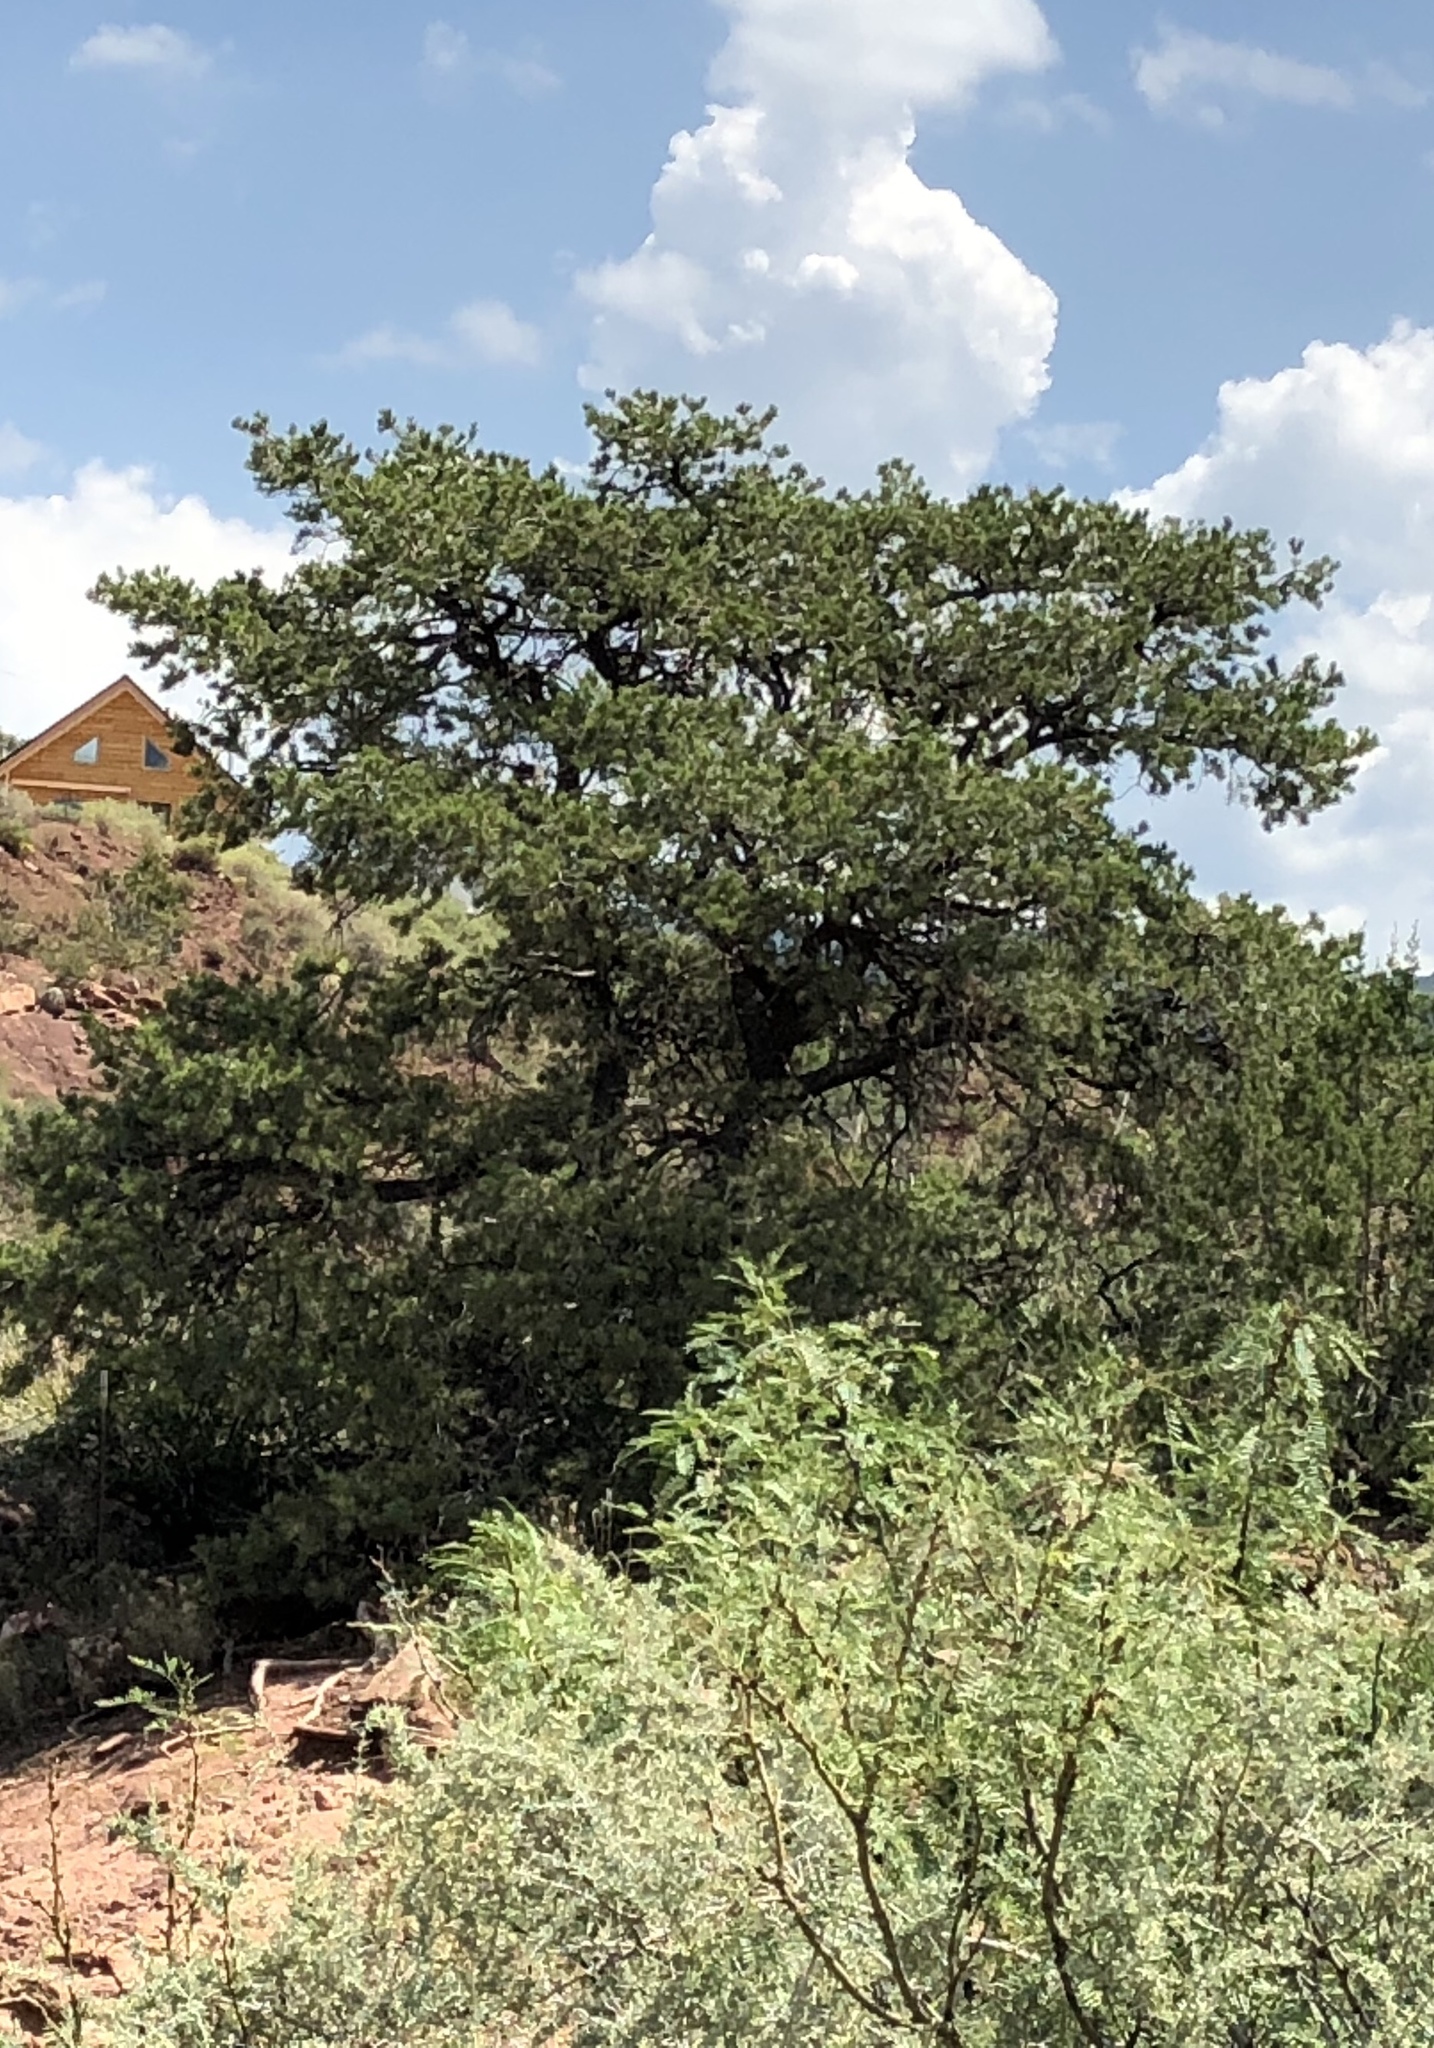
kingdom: Plantae
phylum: Tracheophyta
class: Pinopsida
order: Pinales
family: Pinaceae
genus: Pinus
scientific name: Pinus edulis
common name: Colorado pinyon
